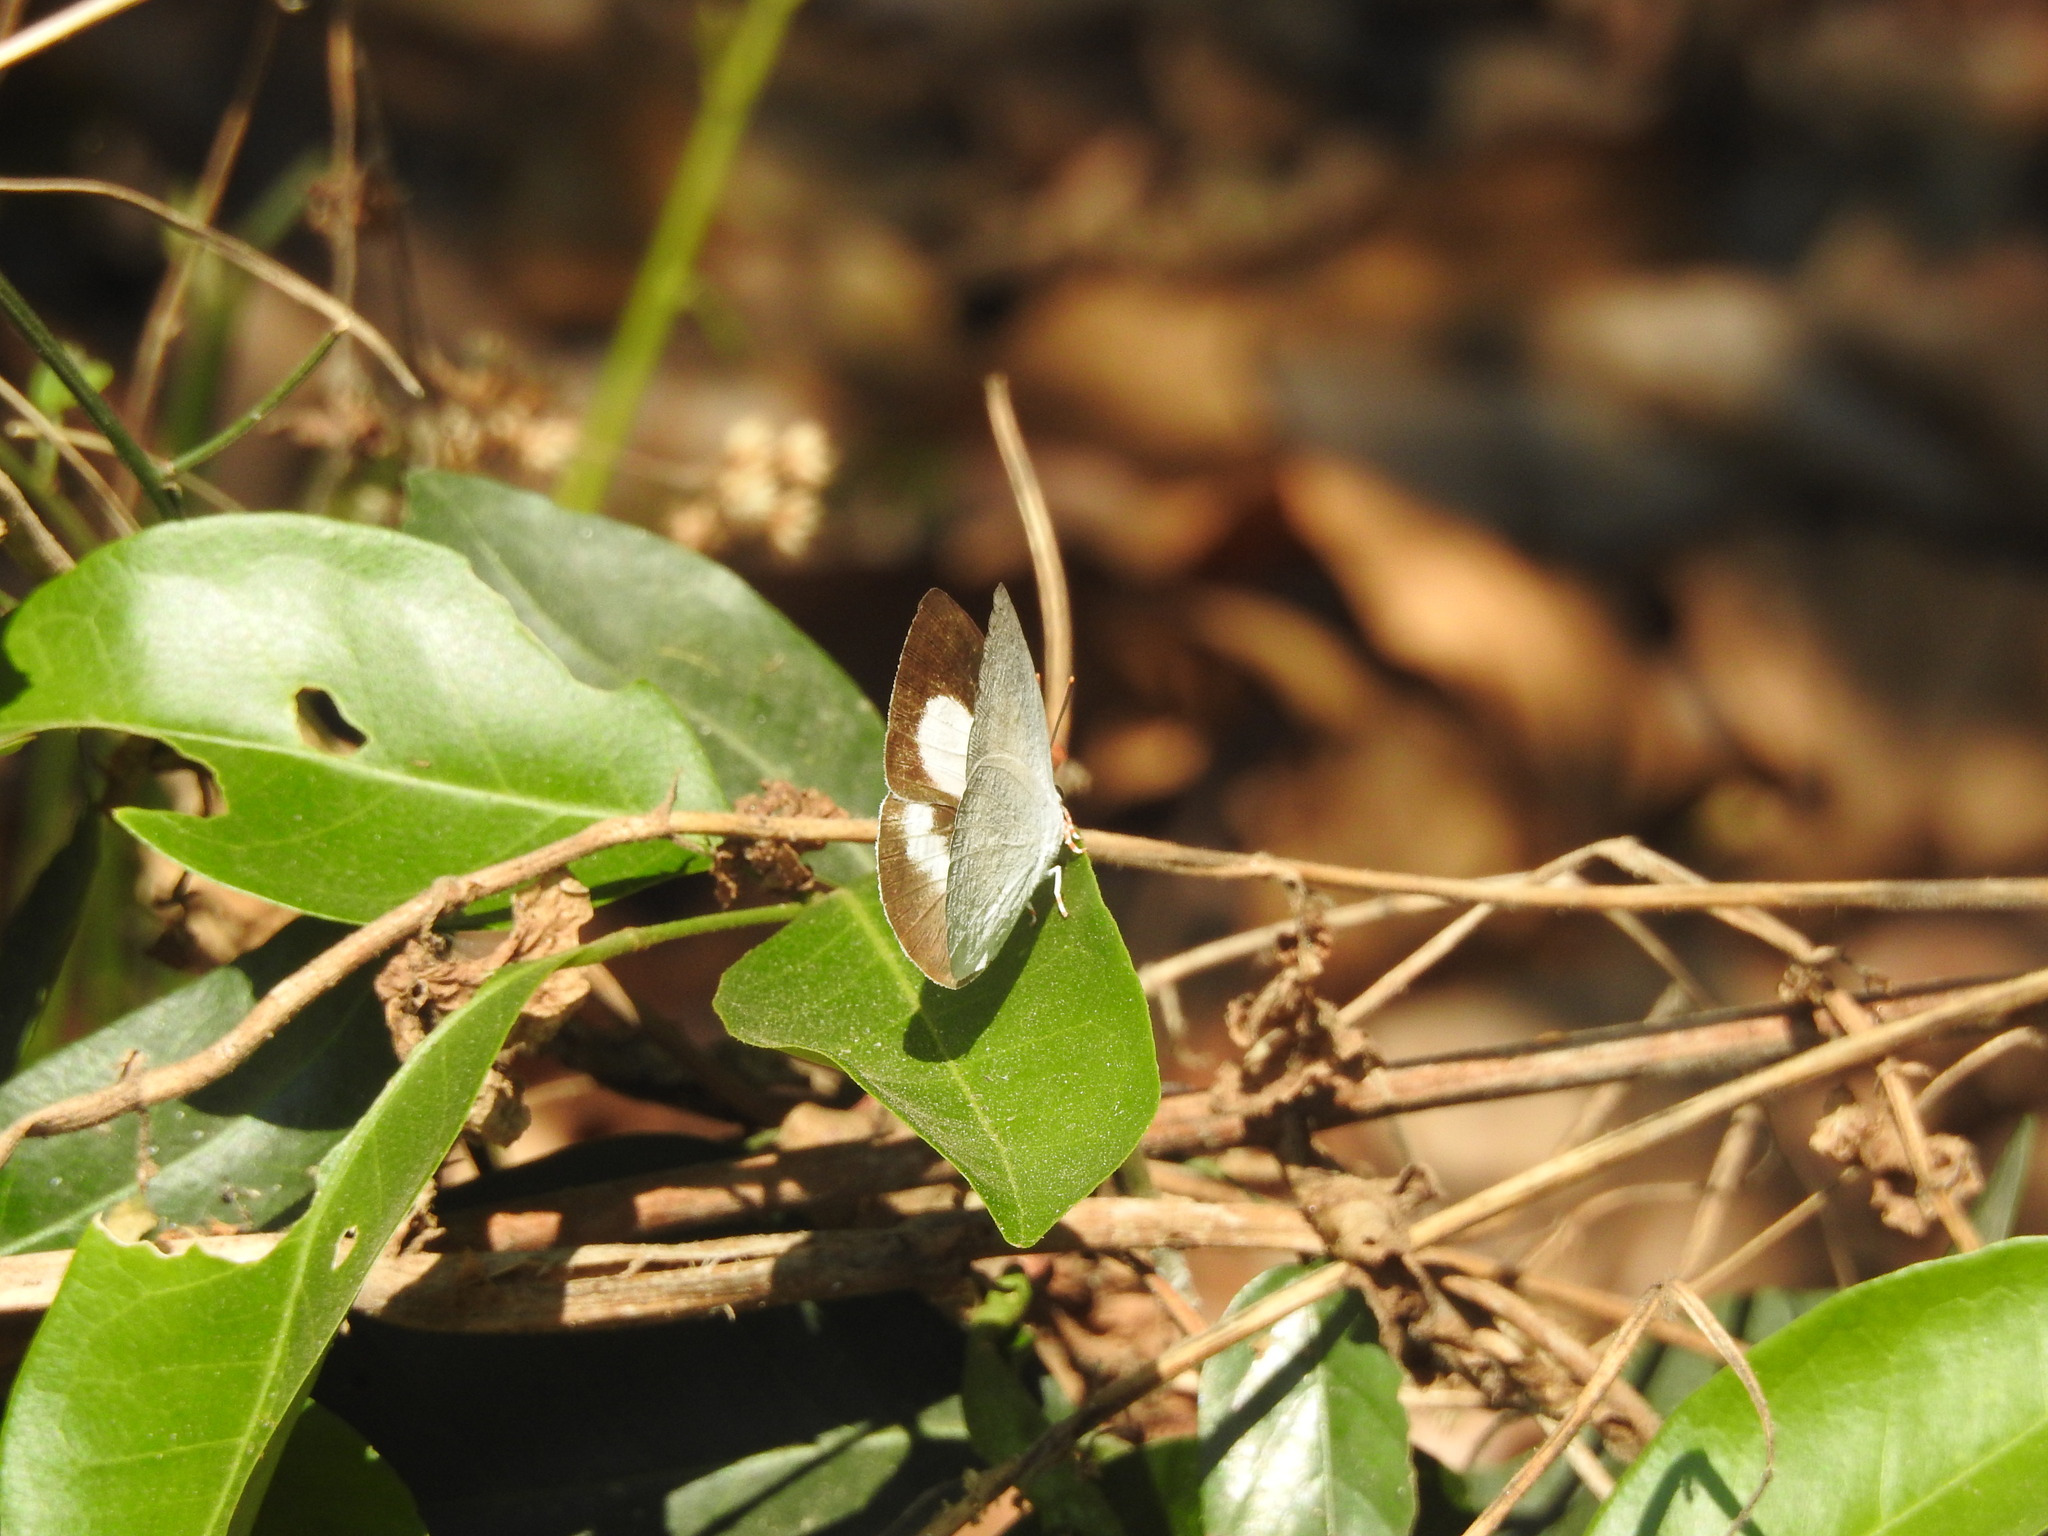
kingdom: Animalia
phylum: Arthropoda
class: Insecta
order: Lepidoptera
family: Lycaenidae
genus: Curetis
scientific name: Curetis thetis
